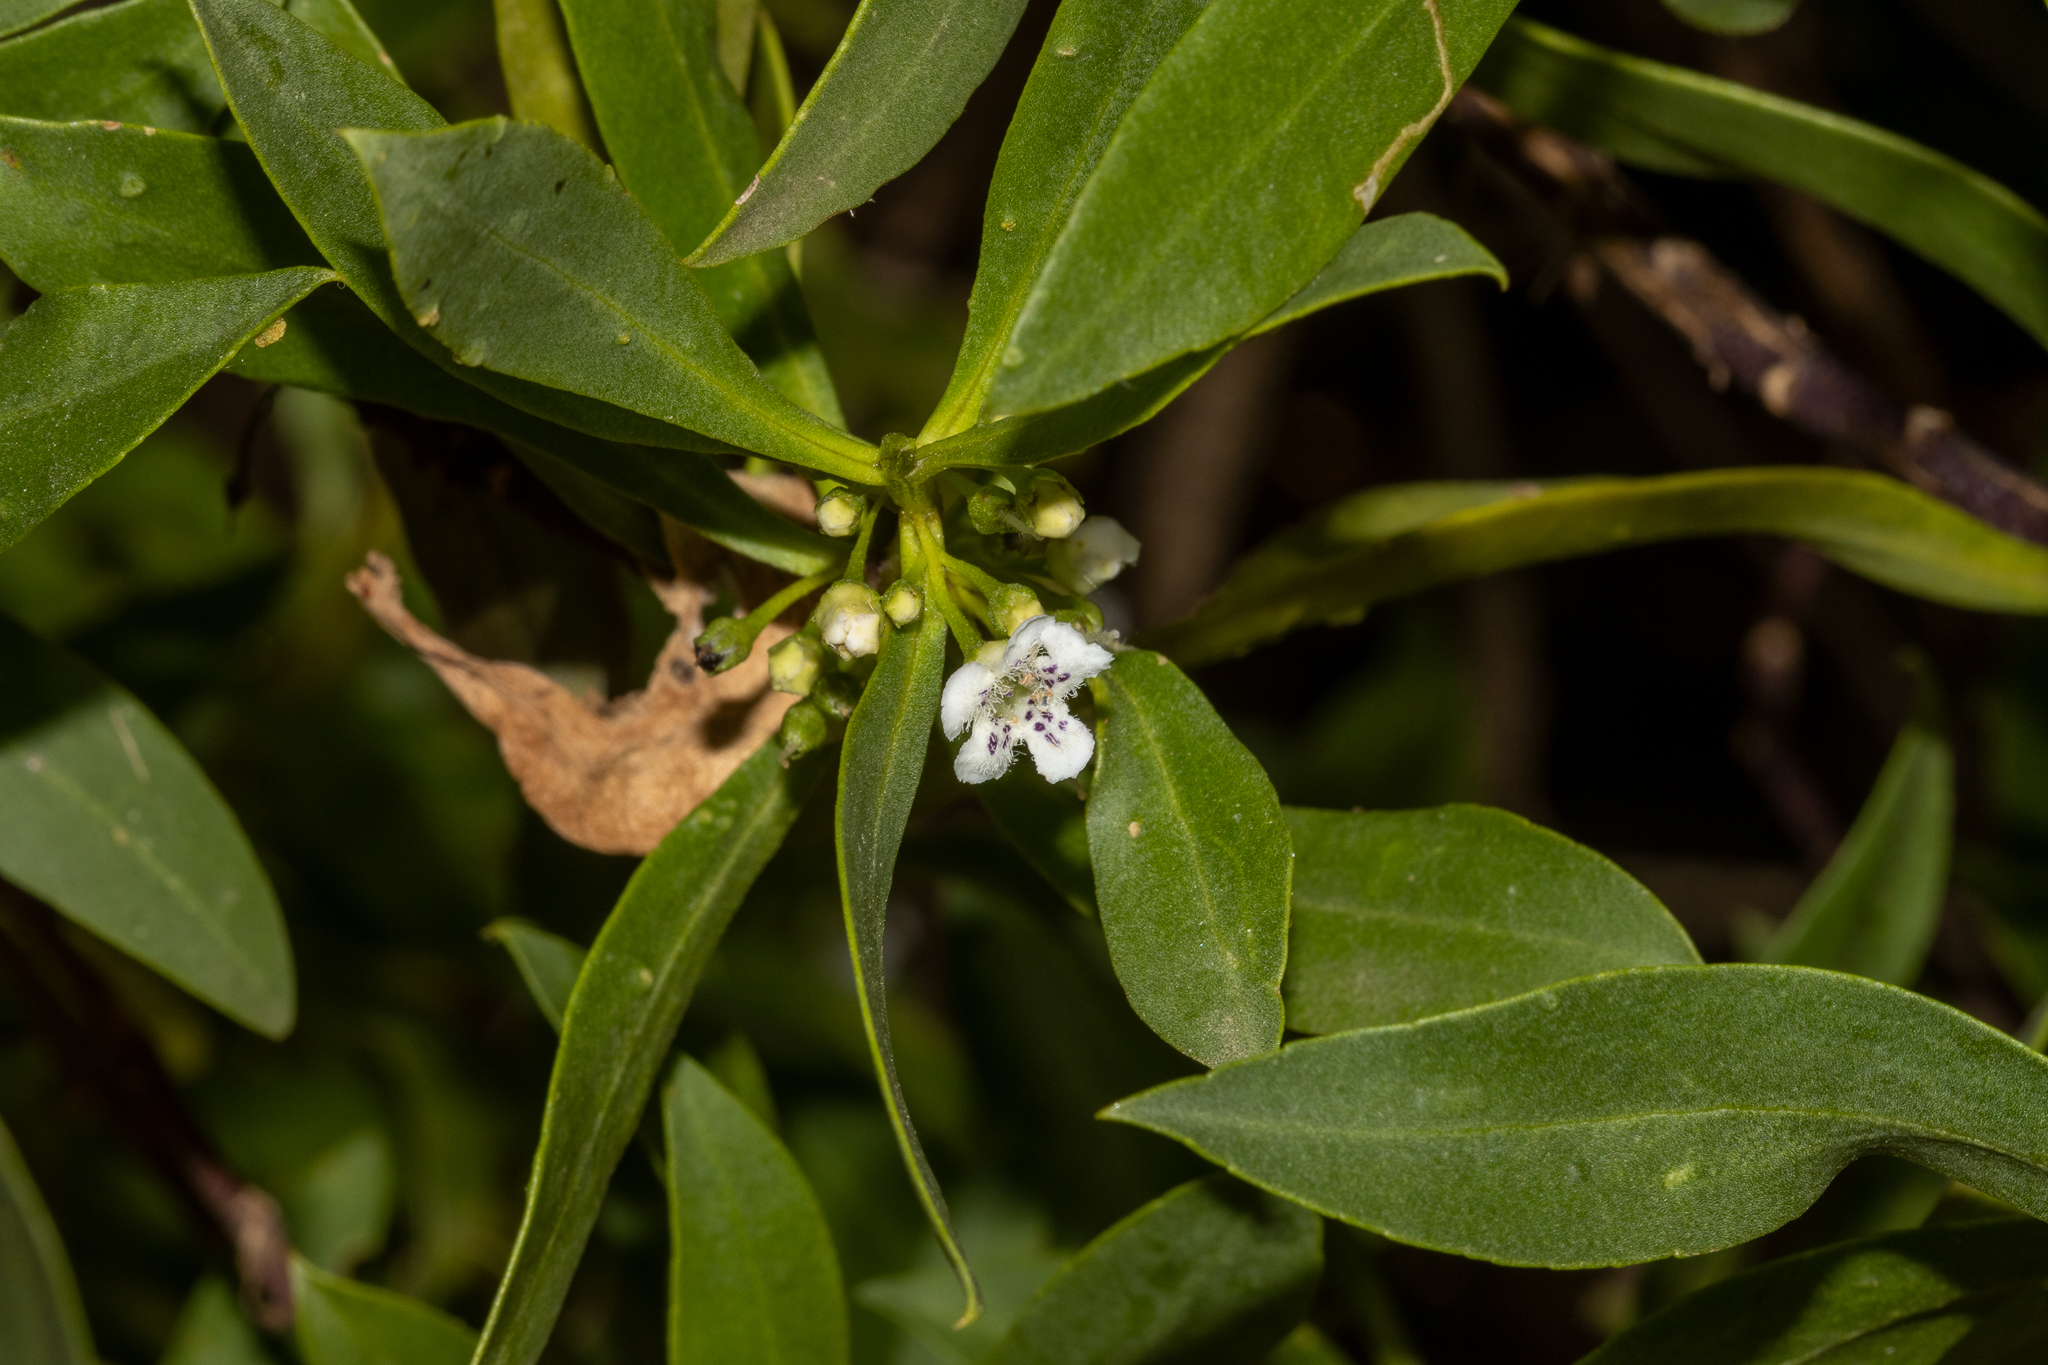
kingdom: Plantae
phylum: Tracheophyta
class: Magnoliopsida
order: Lamiales
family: Scrophulariaceae
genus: Myoporum
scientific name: Myoporum insulare
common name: Common boobialla
